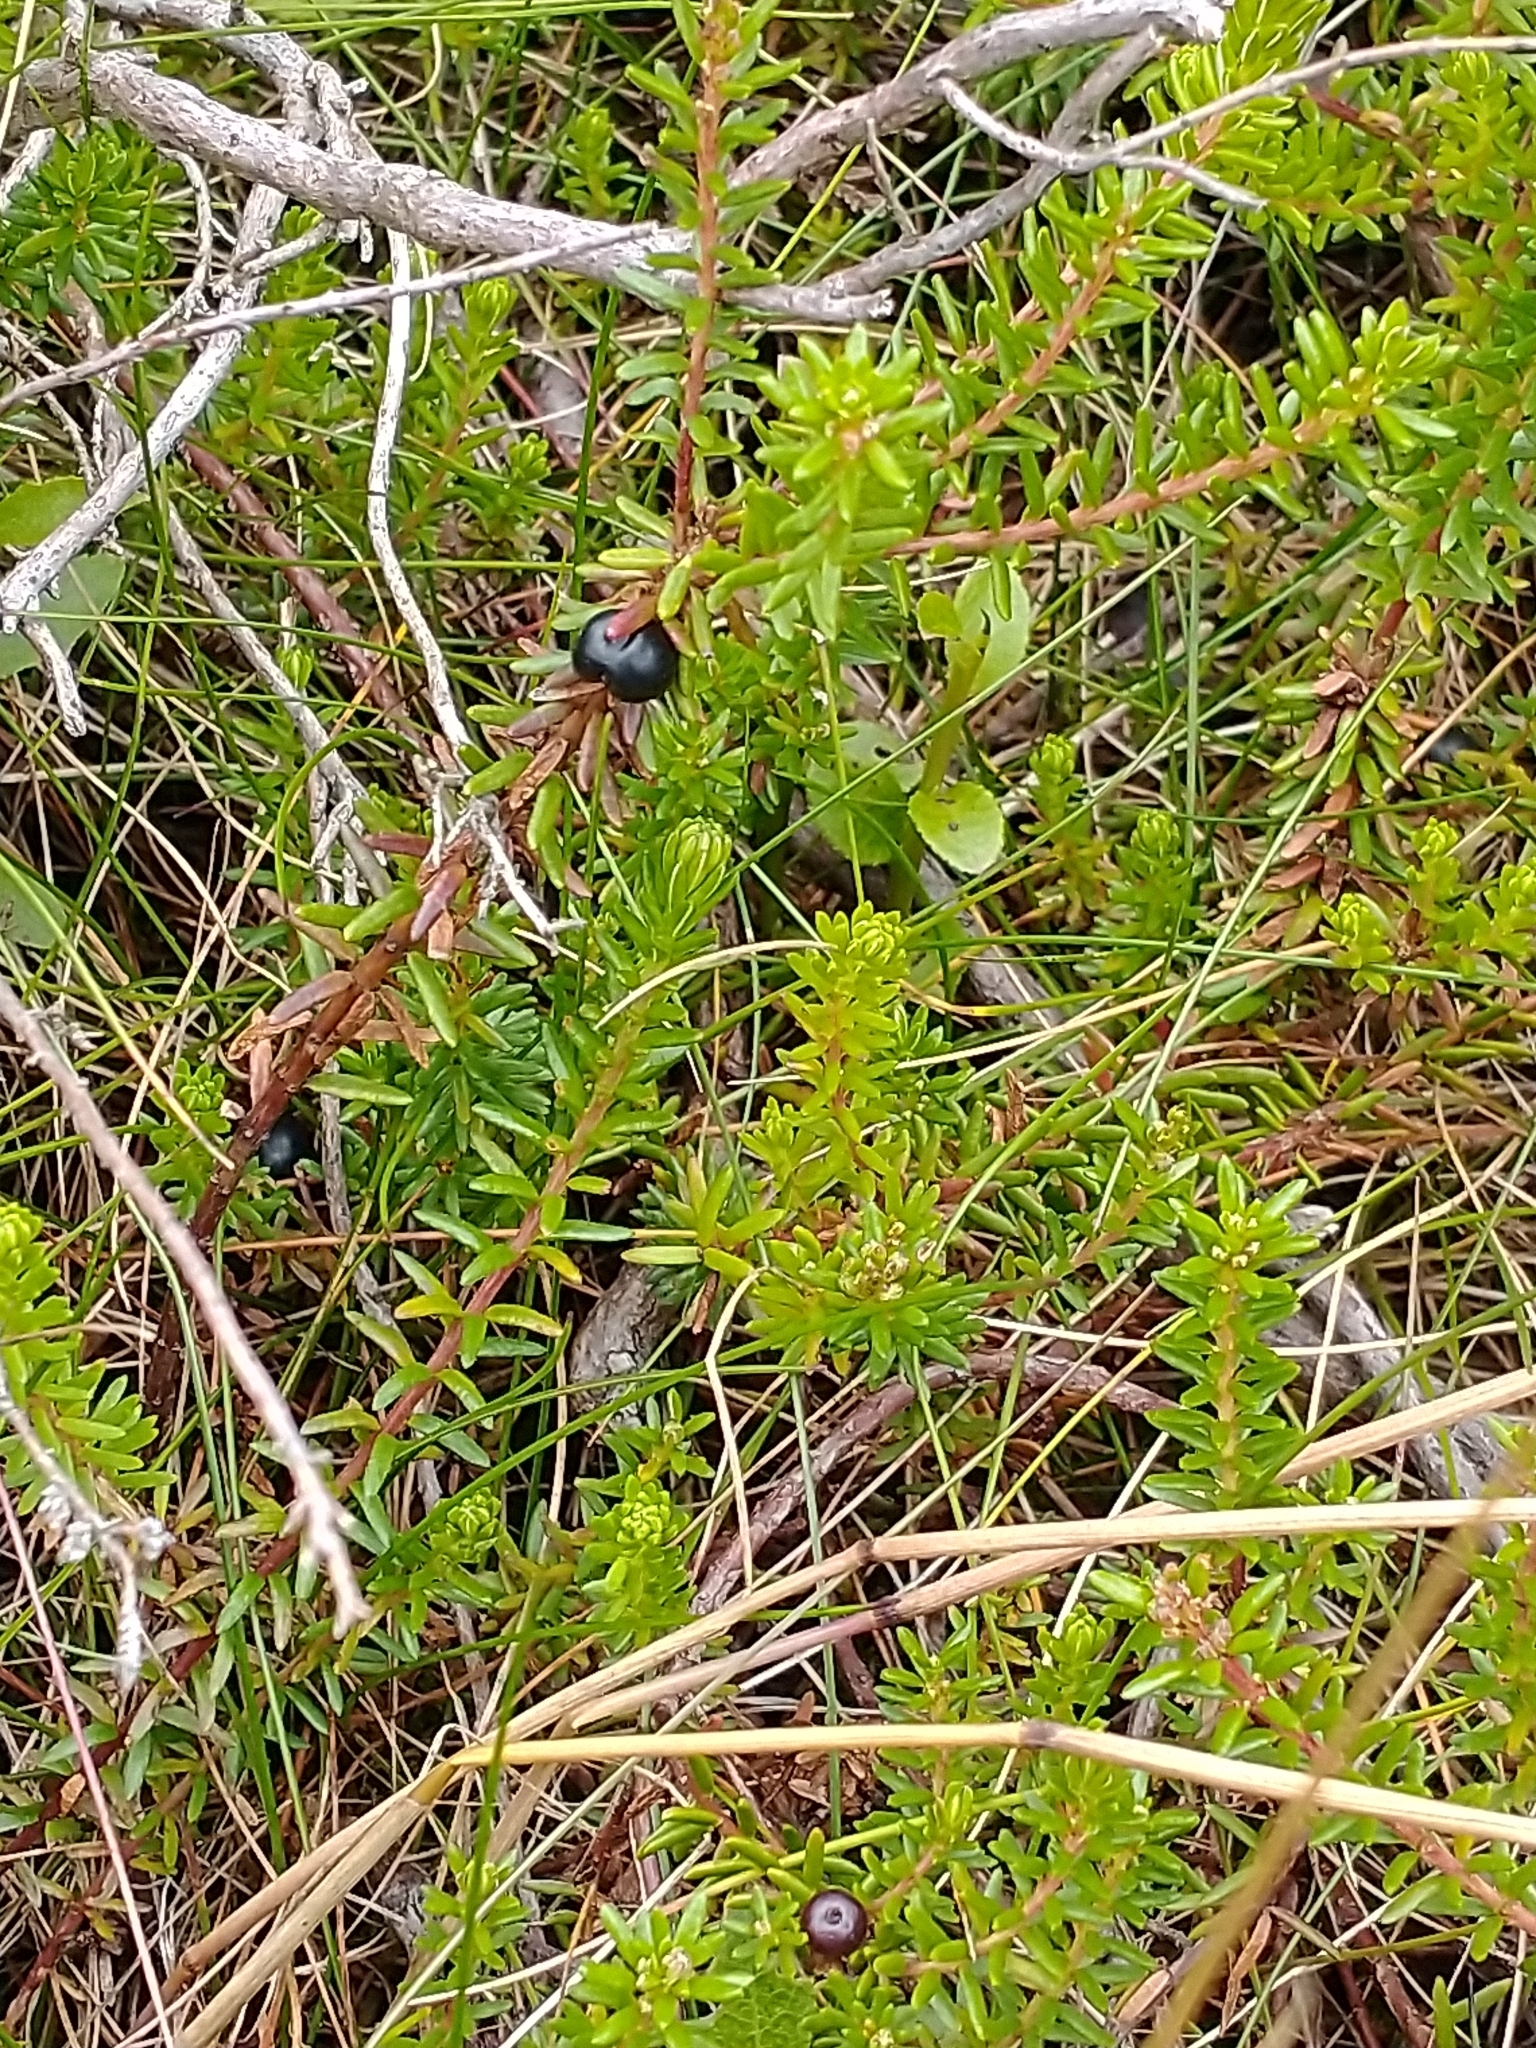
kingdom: Plantae
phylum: Tracheophyta
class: Magnoliopsida
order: Ericales
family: Ericaceae
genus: Empetrum
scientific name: Empetrum nigrum
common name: Black crowberry
